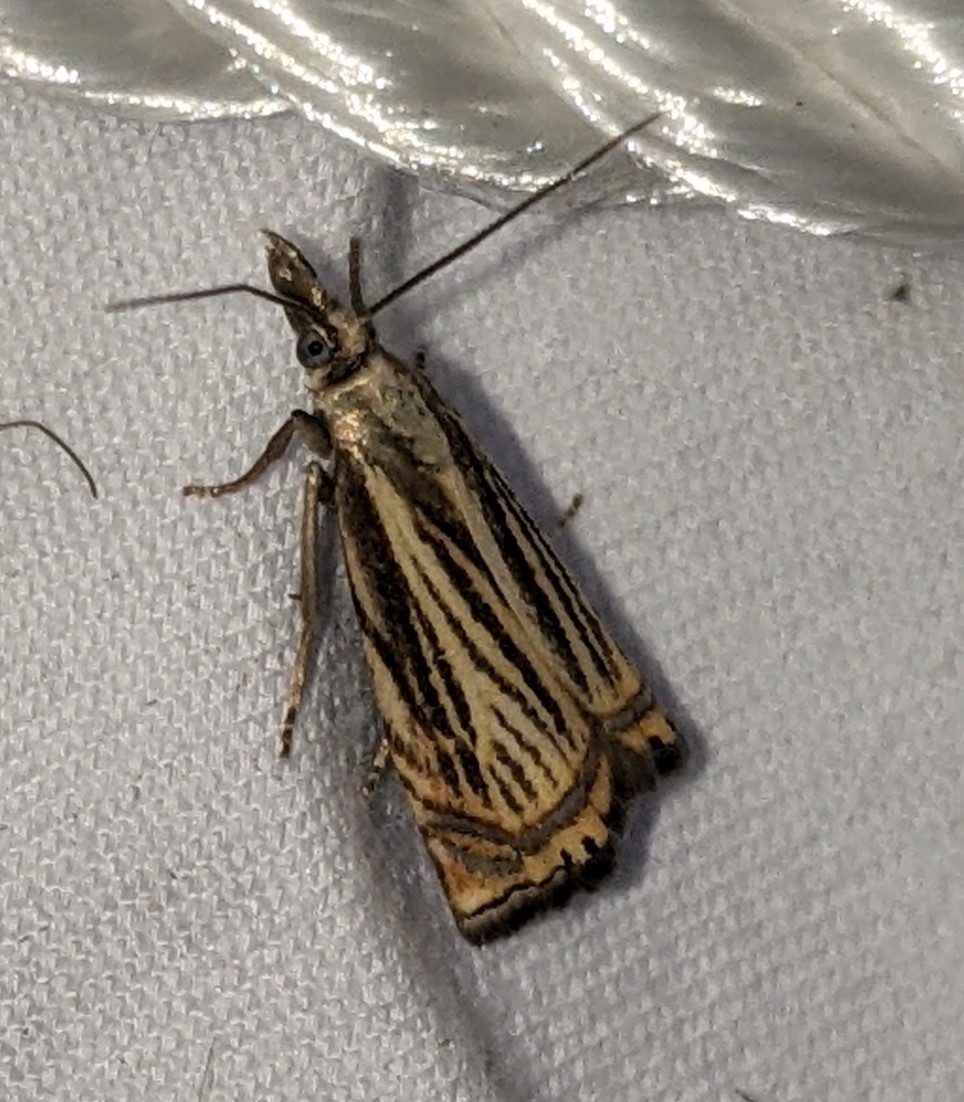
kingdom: Animalia
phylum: Arthropoda
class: Insecta
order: Lepidoptera
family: Crambidae
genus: Chrysoteuchia
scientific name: Chrysoteuchia topiarius
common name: Topiary grass-veneer
